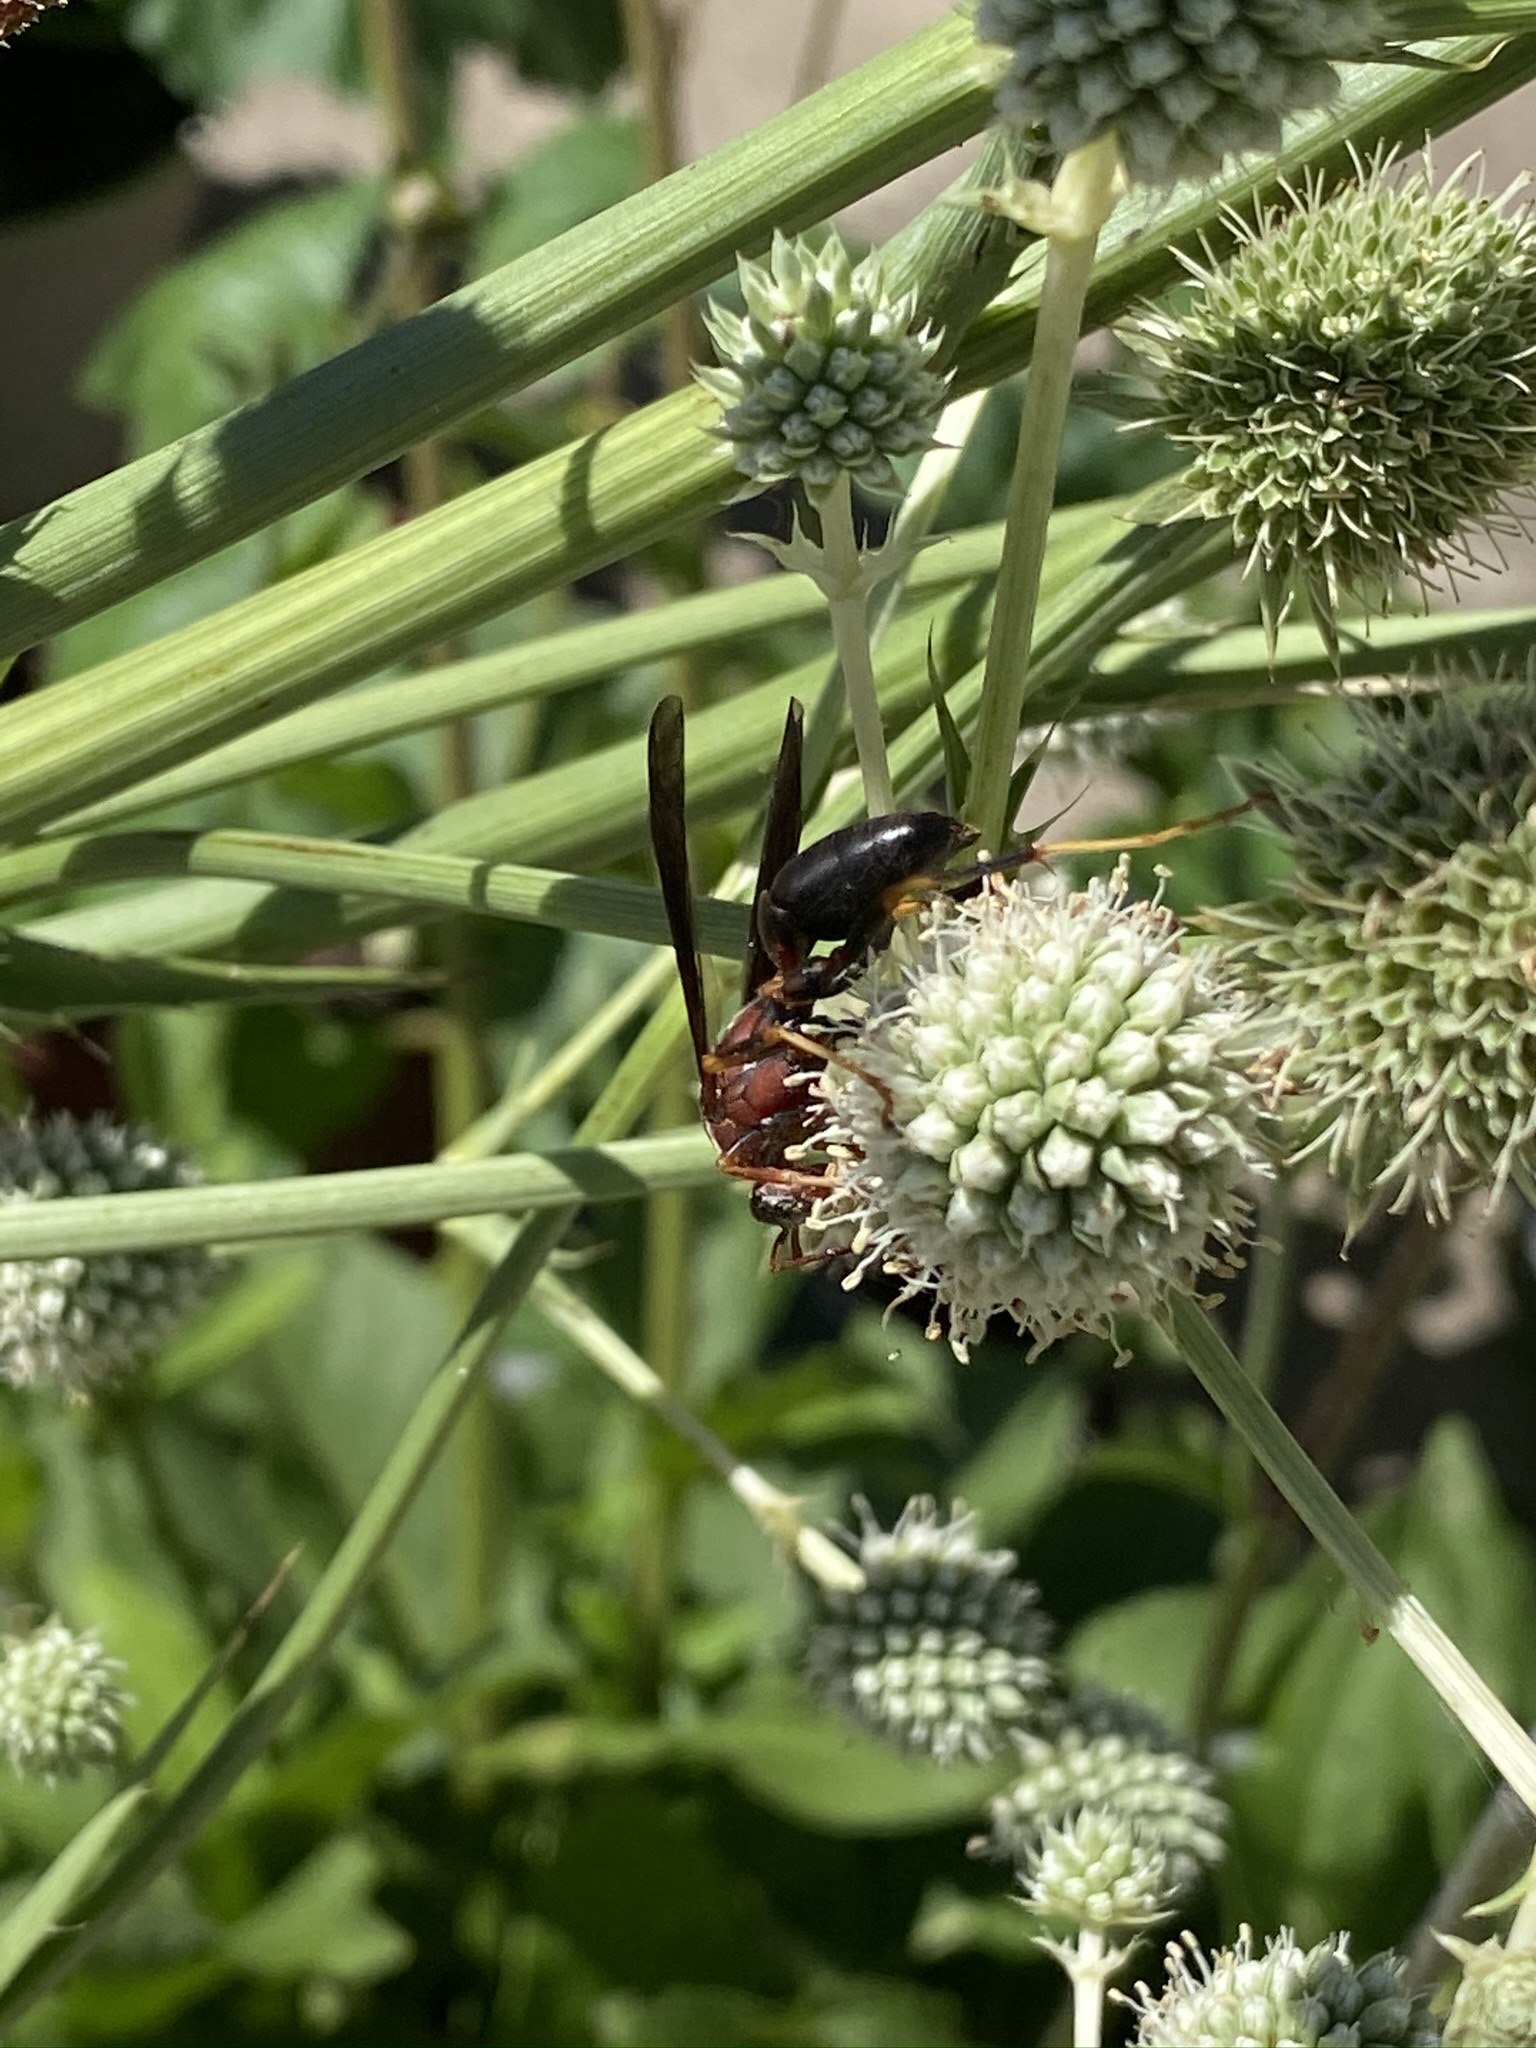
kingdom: Animalia
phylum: Arthropoda
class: Insecta
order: Hymenoptera
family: Eumenidae
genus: Polistes
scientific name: Polistes metricus
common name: Metric paper wasp
